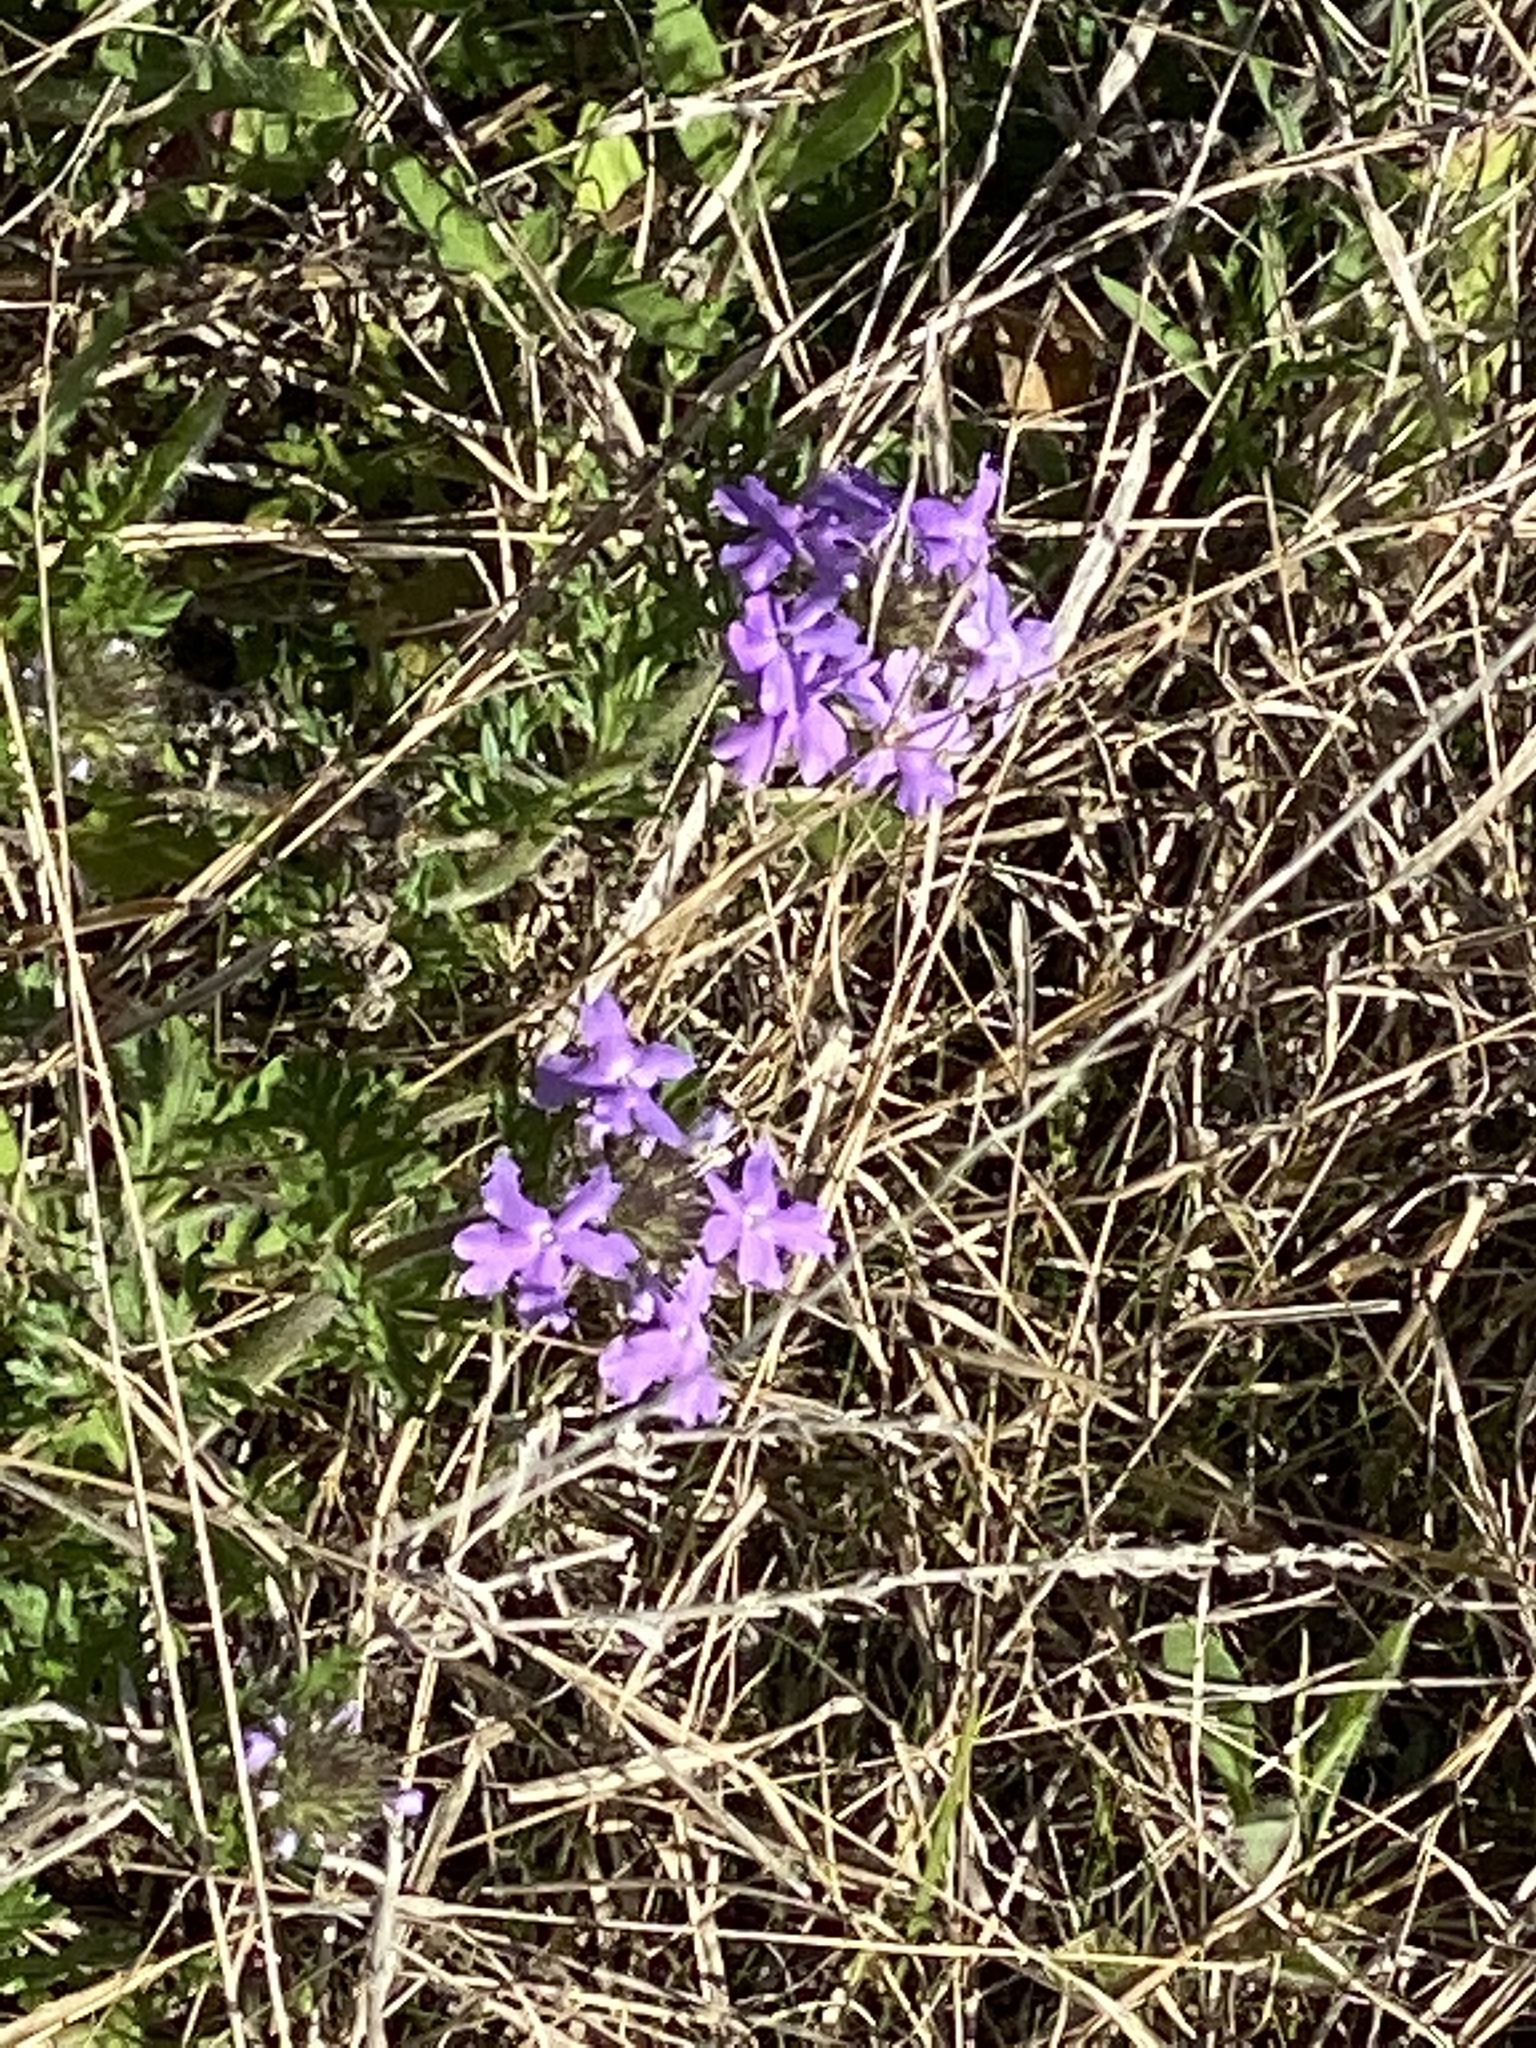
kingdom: Plantae
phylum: Tracheophyta
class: Magnoliopsida
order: Lamiales
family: Verbenaceae
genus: Verbena
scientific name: Verbena bipinnatifida
